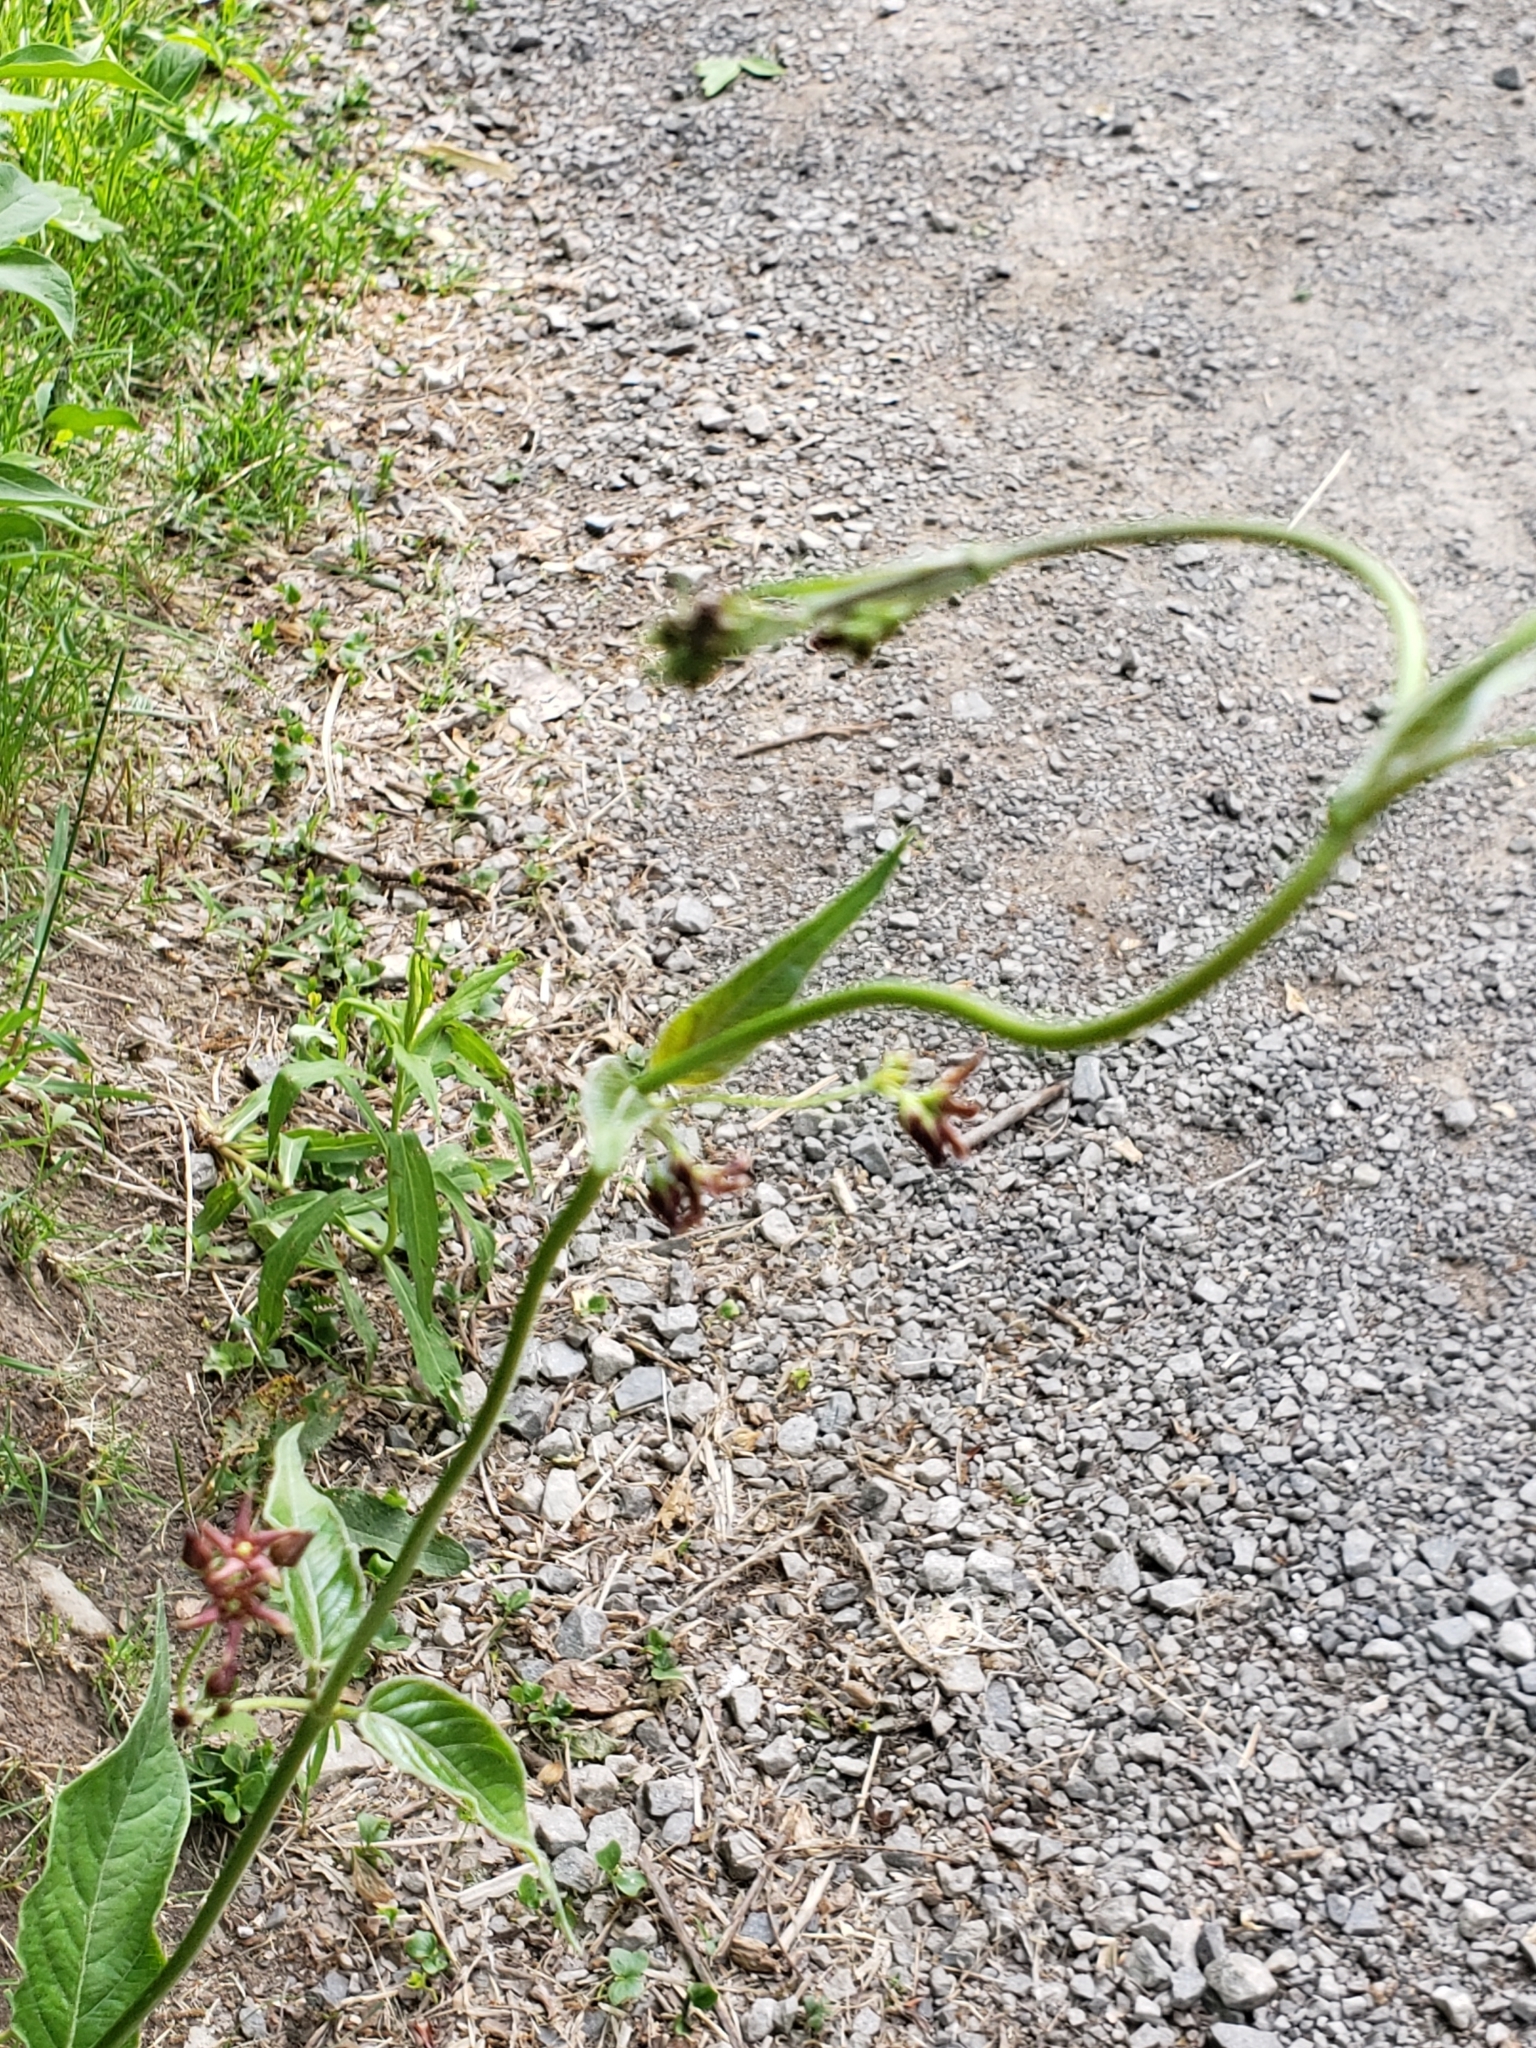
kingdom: Plantae
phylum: Tracheophyta
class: Magnoliopsida
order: Gentianales
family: Apocynaceae
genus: Vincetoxicum
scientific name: Vincetoxicum rossicum
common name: Dog-strangling vine
